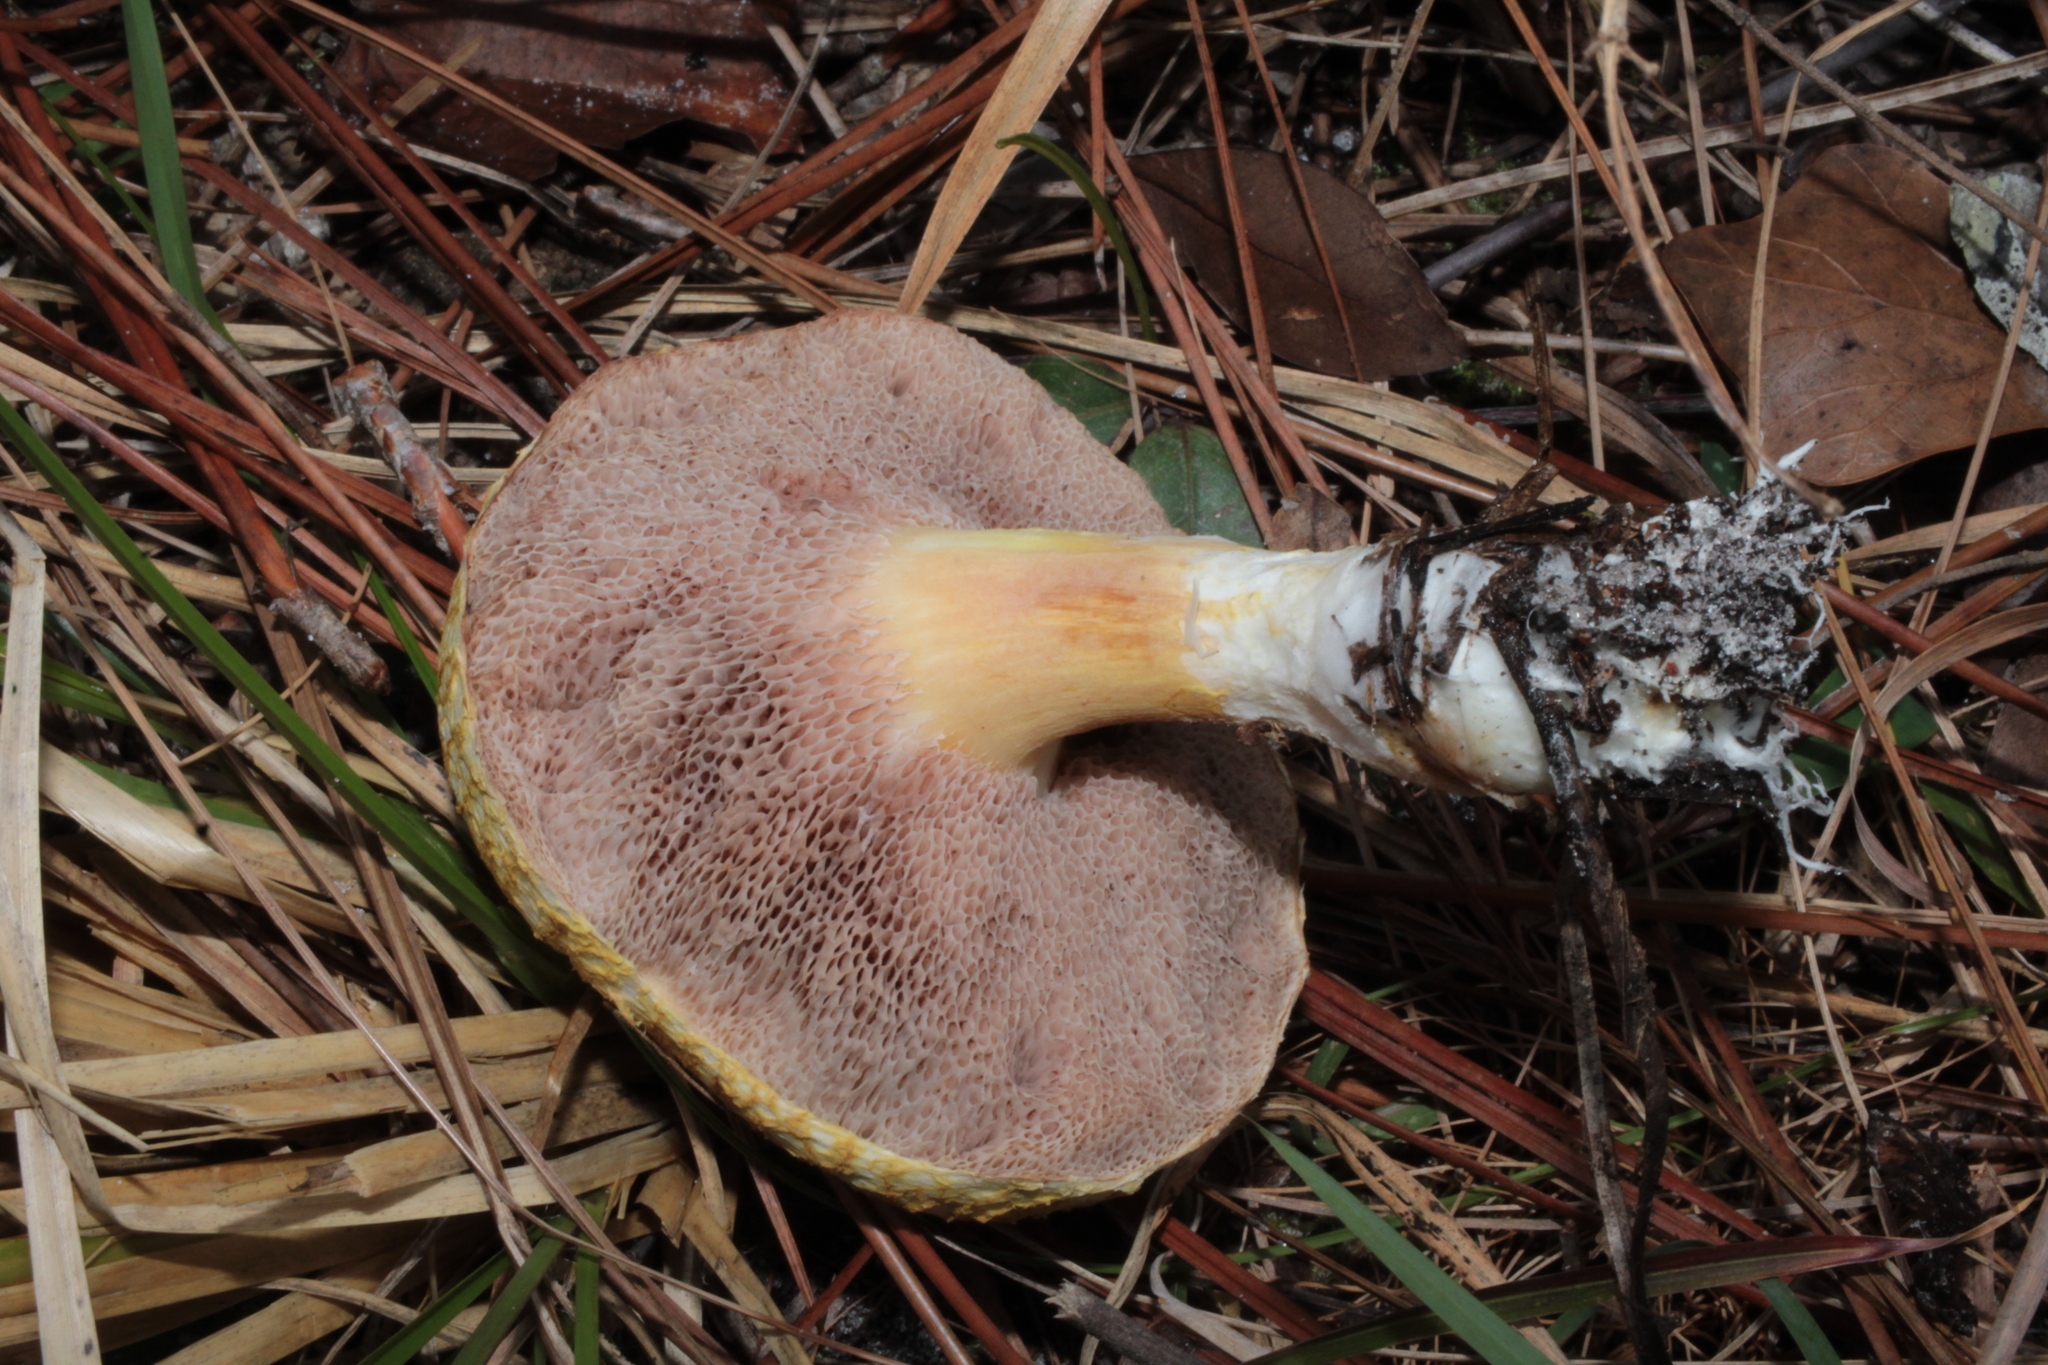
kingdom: Fungi
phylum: Basidiomycota
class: Agaricomycetes
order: Boletales
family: Boletaceae
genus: Veloporphyrellus
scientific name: Veloporphyrellus conicus
